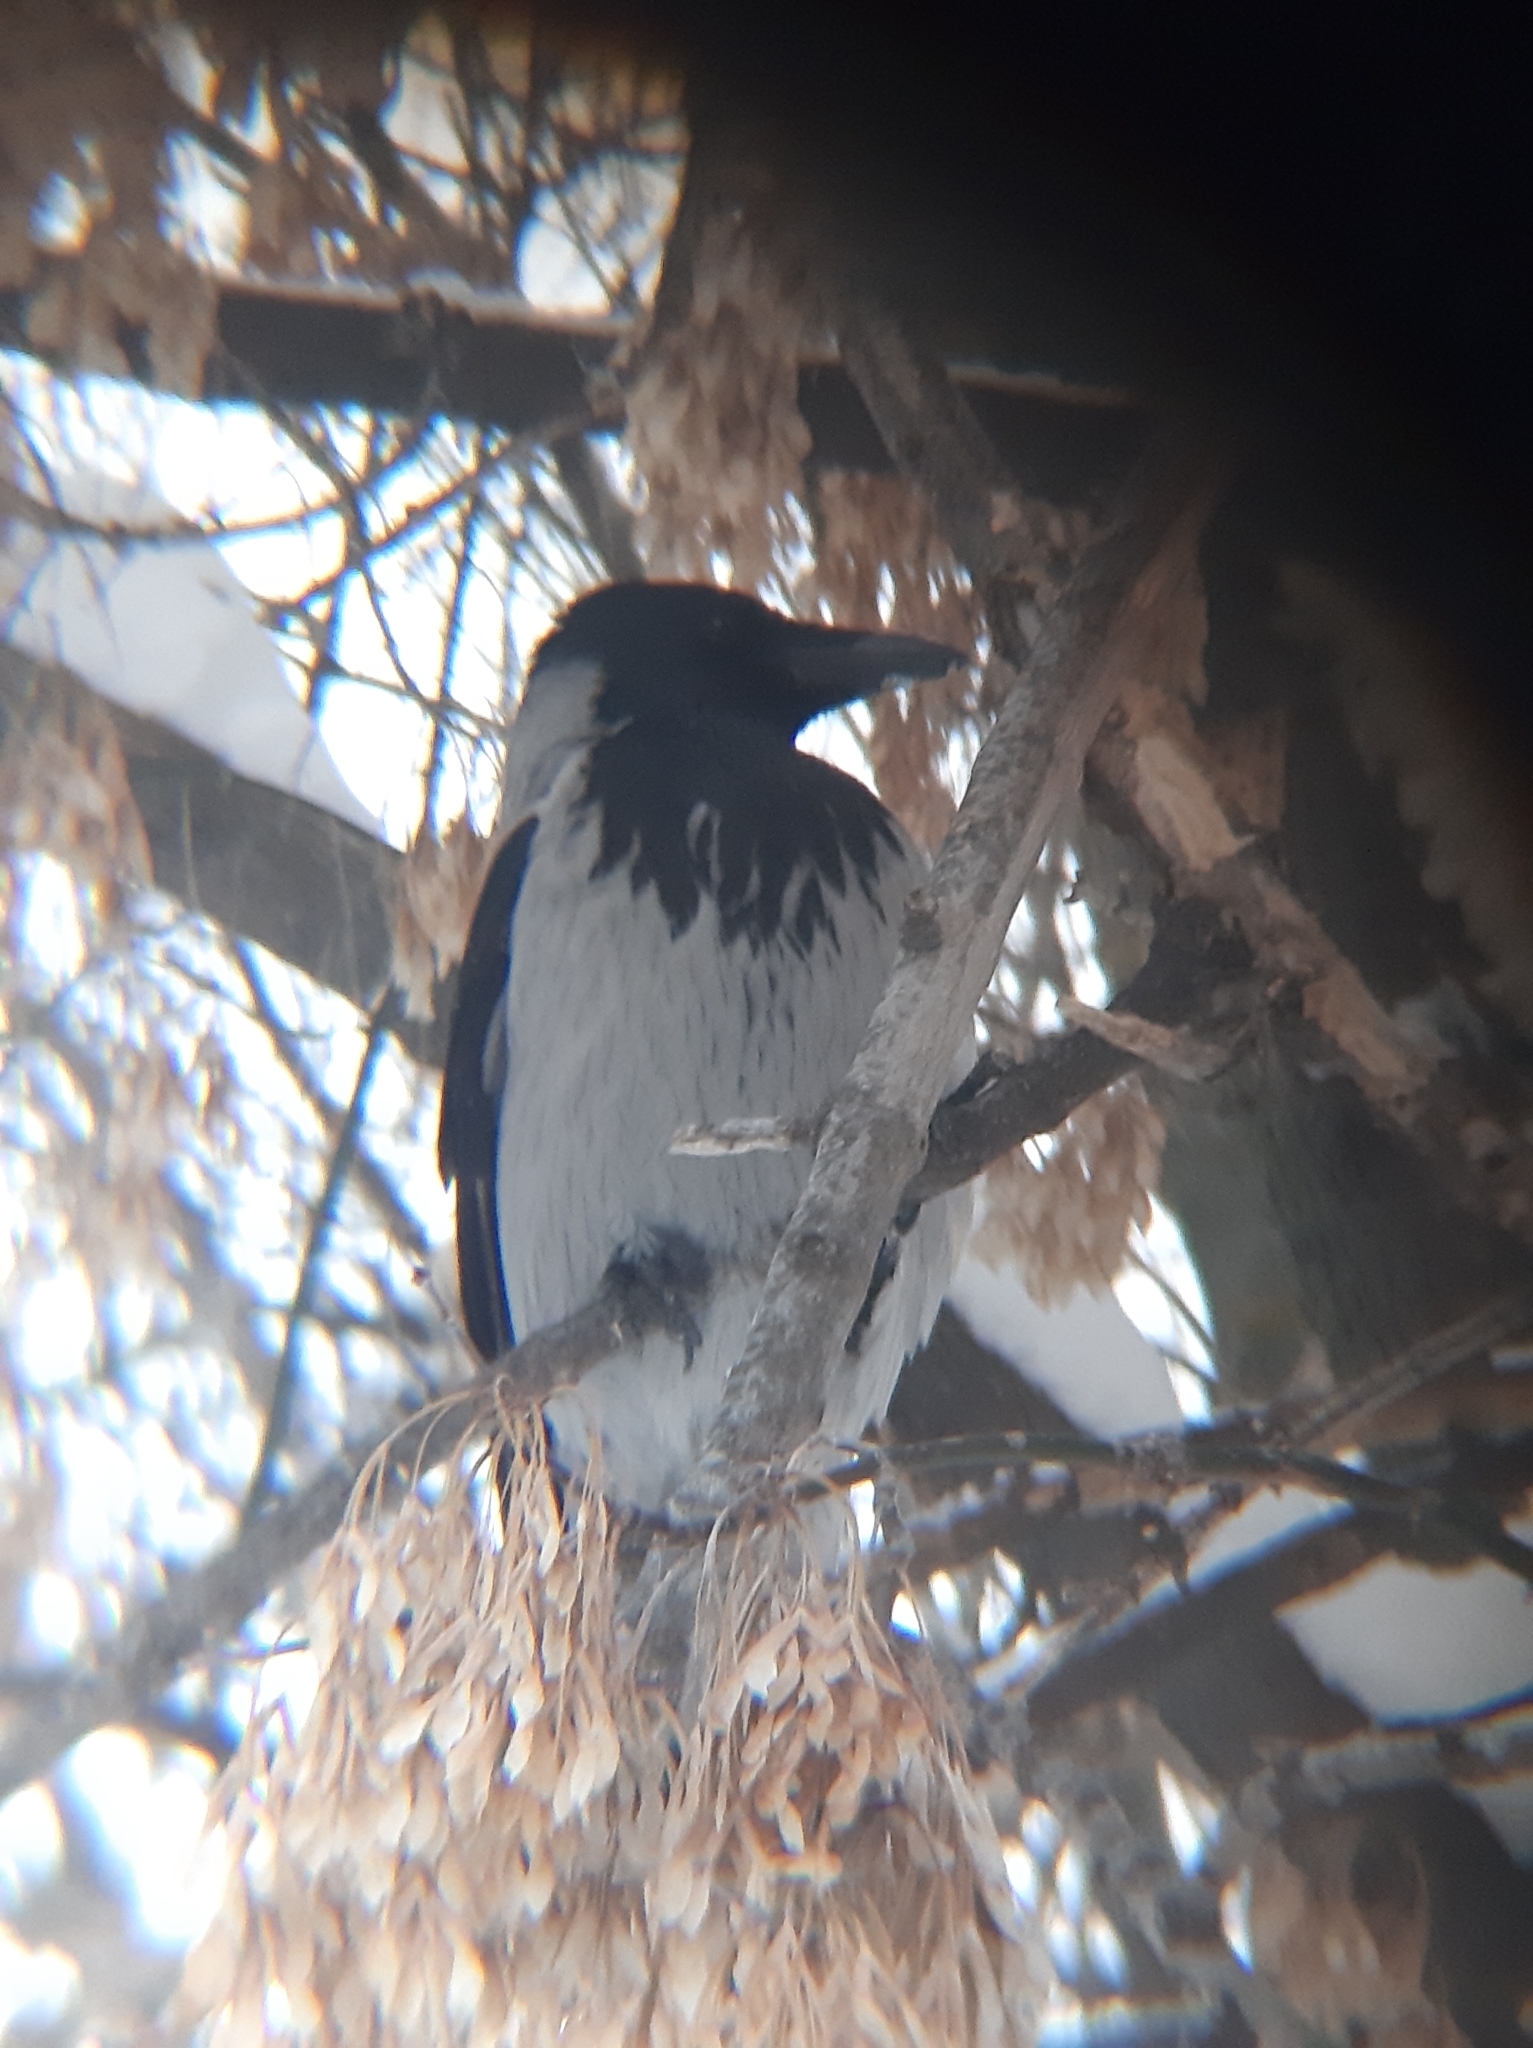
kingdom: Animalia
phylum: Chordata
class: Aves
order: Passeriformes
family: Corvidae
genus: Corvus
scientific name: Corvus cornix
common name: Hooded crow
